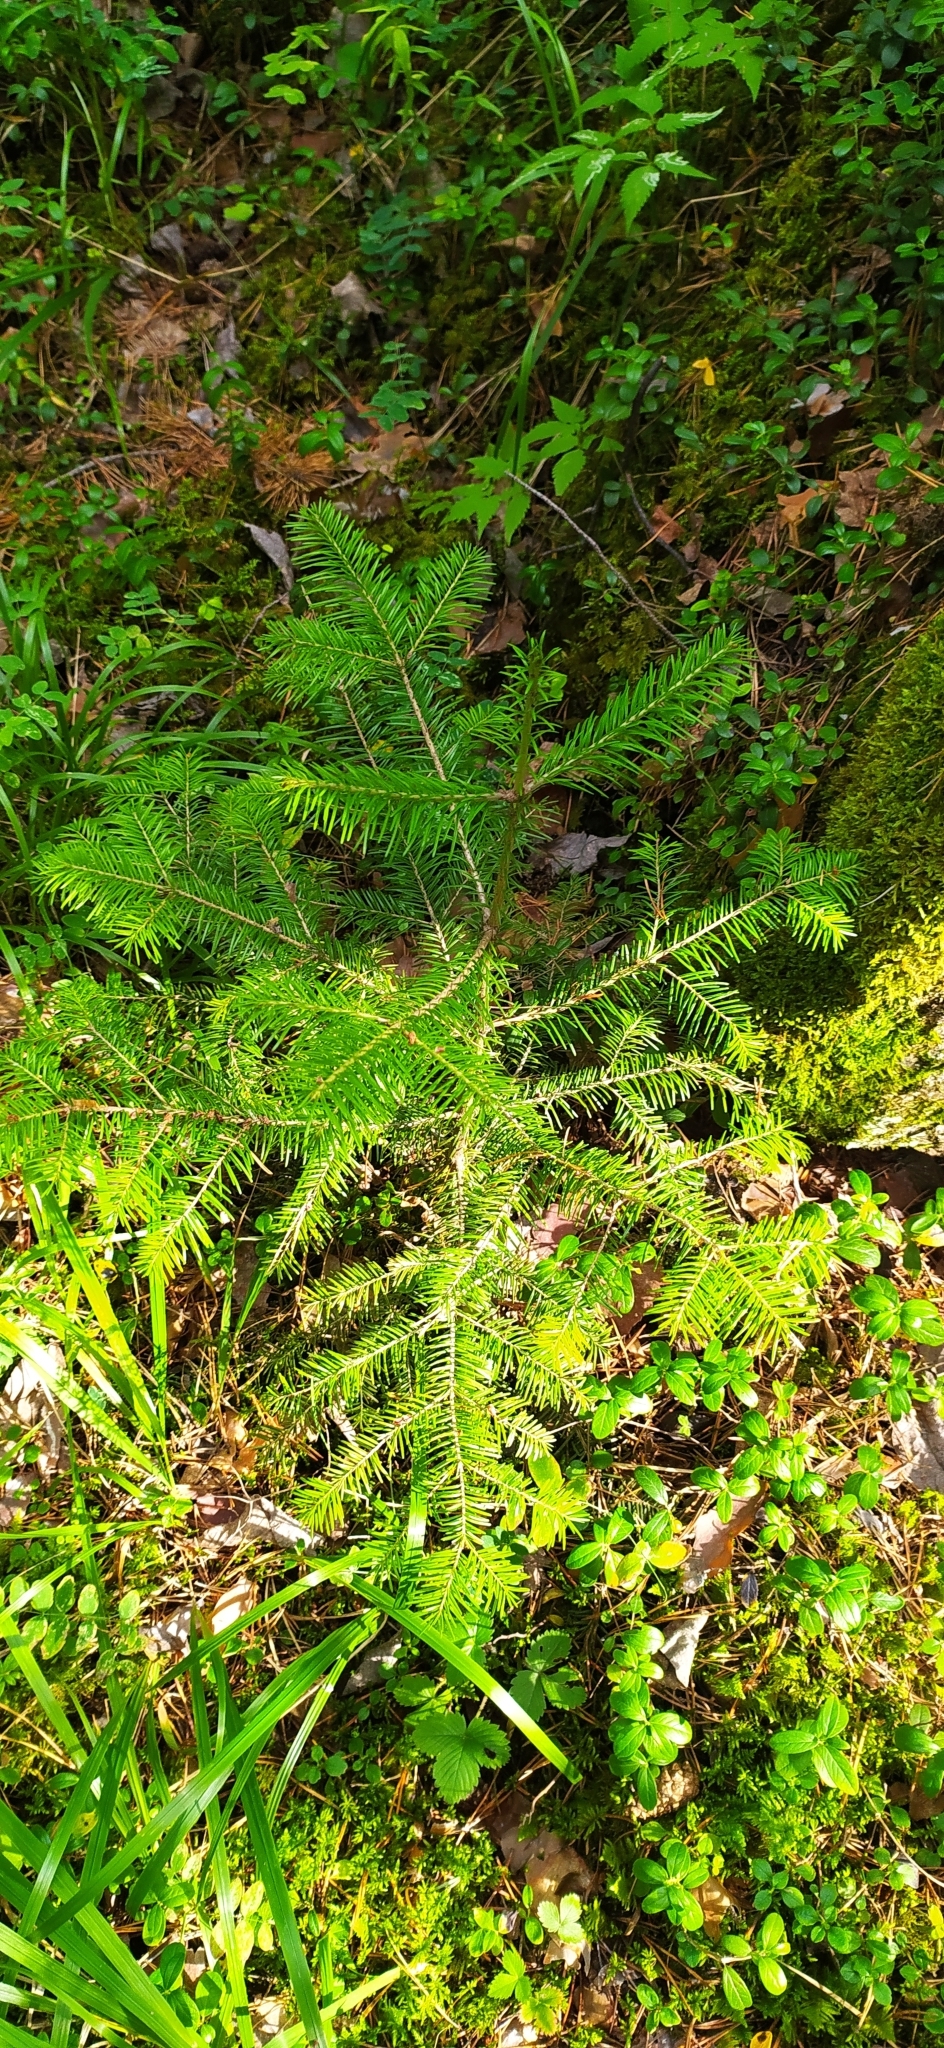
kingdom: Plantae
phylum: Tracheophyta
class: Pinopsida
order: Pinales
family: Pinaceae
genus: Abies
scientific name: Abies sibirica
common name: Siberian fir
